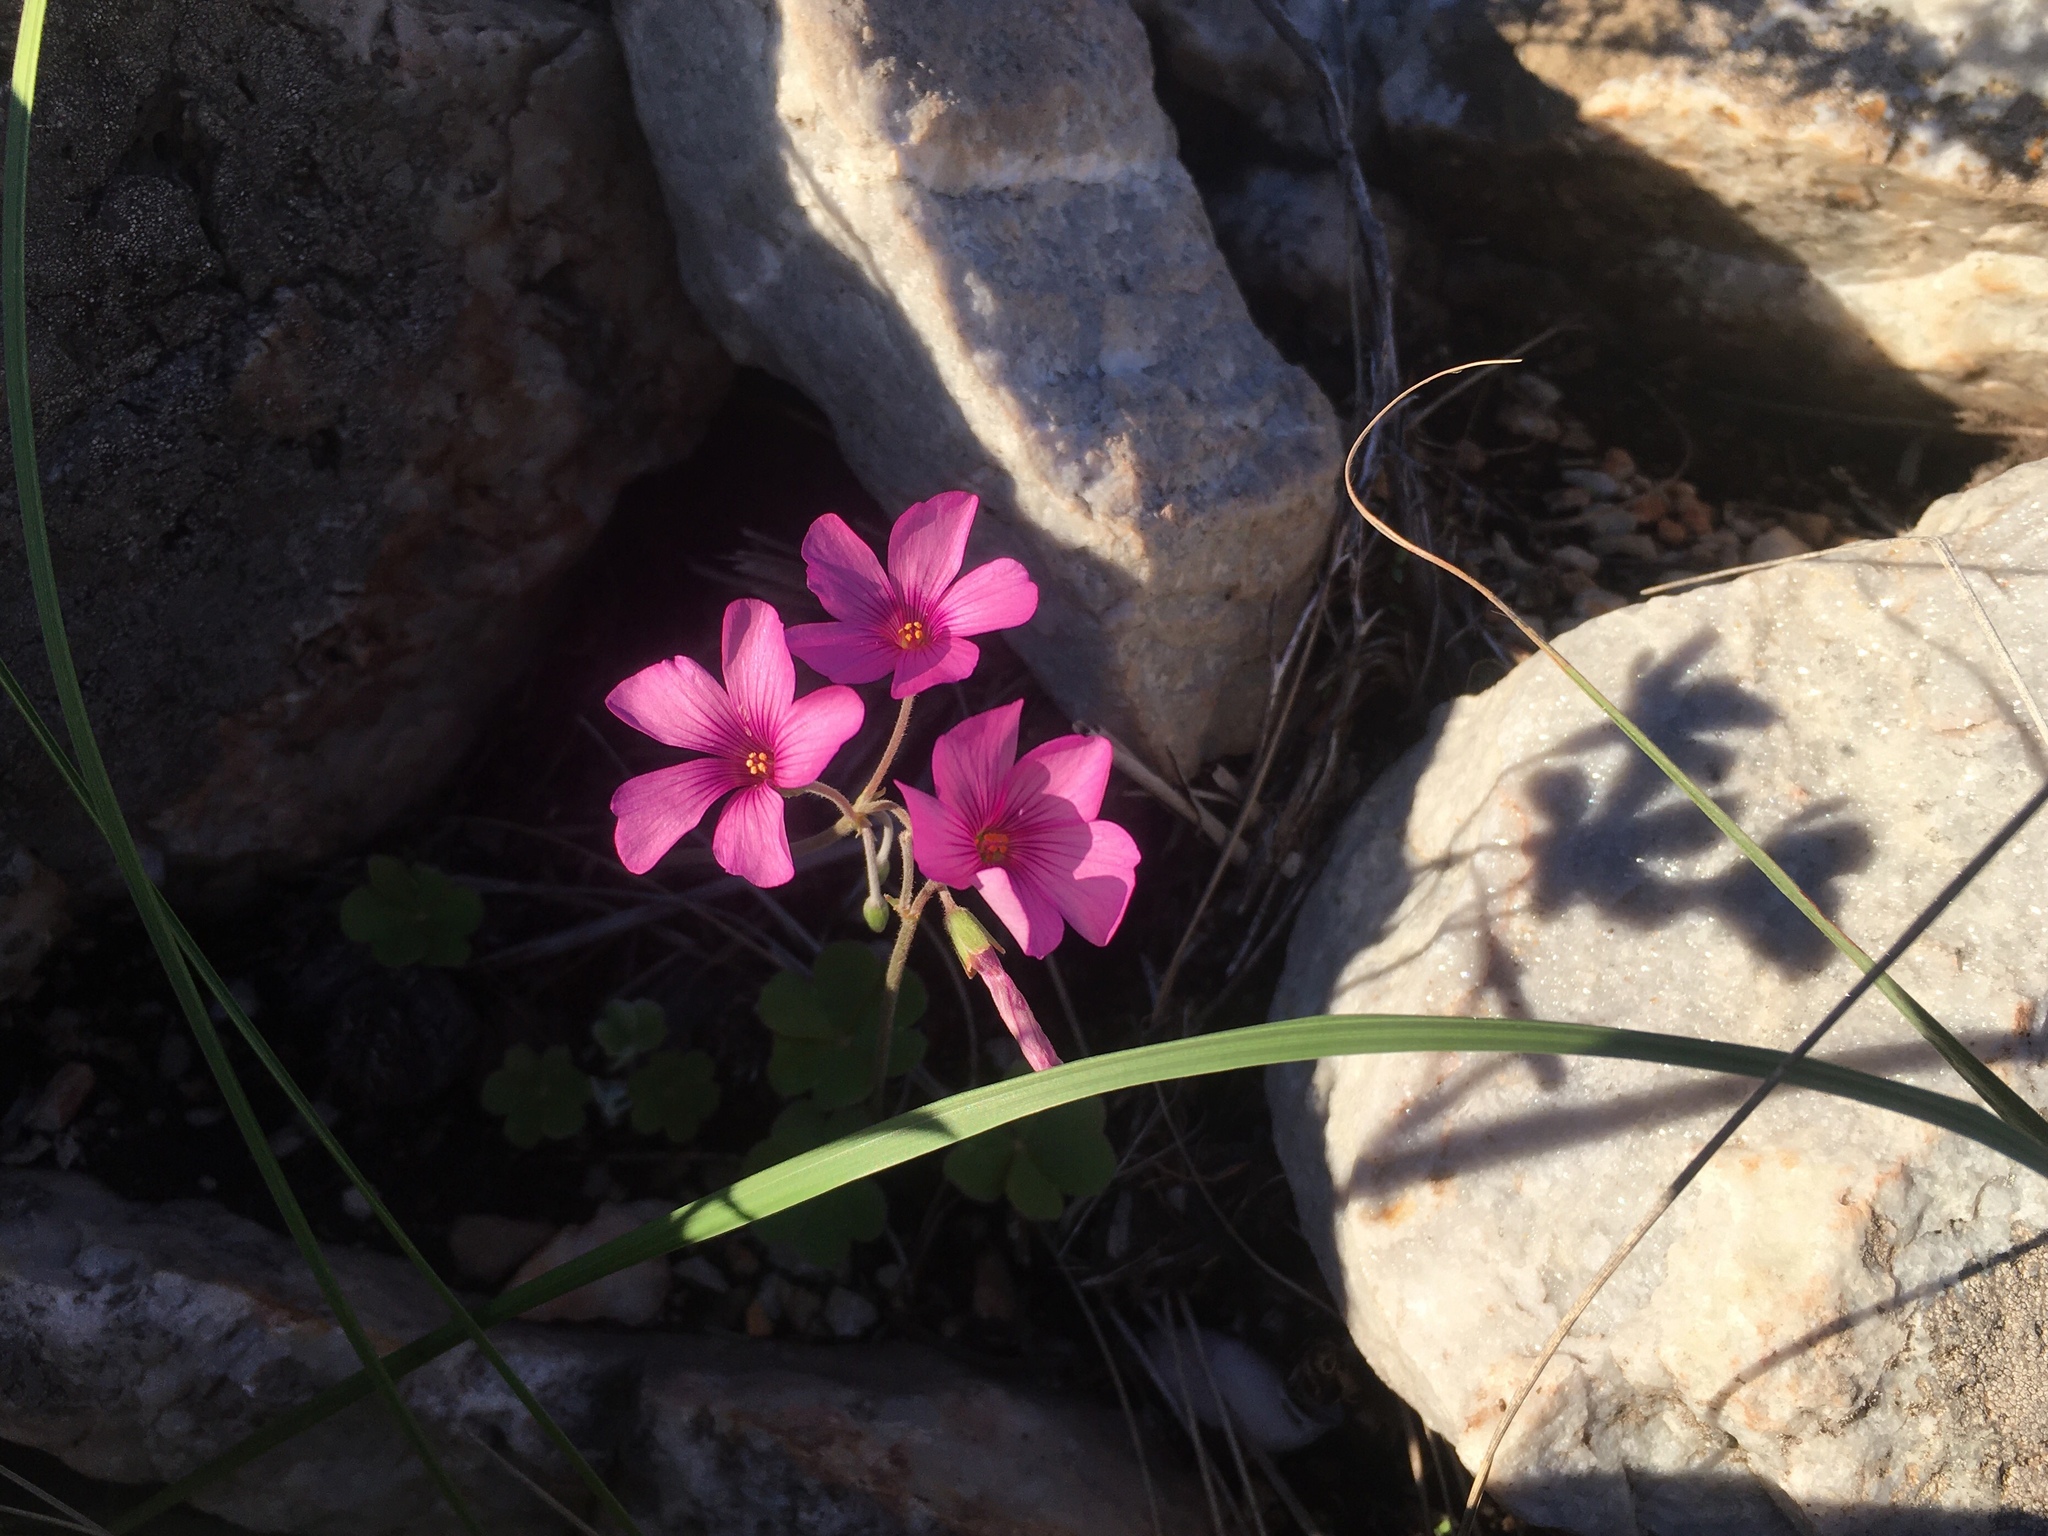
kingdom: Plantae
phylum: Tracheophyta
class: Magnoliopsida
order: Oxalidales
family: Oxalidaceae
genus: Oxalis
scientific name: Oxalis articulata
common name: Pink-sorrel
